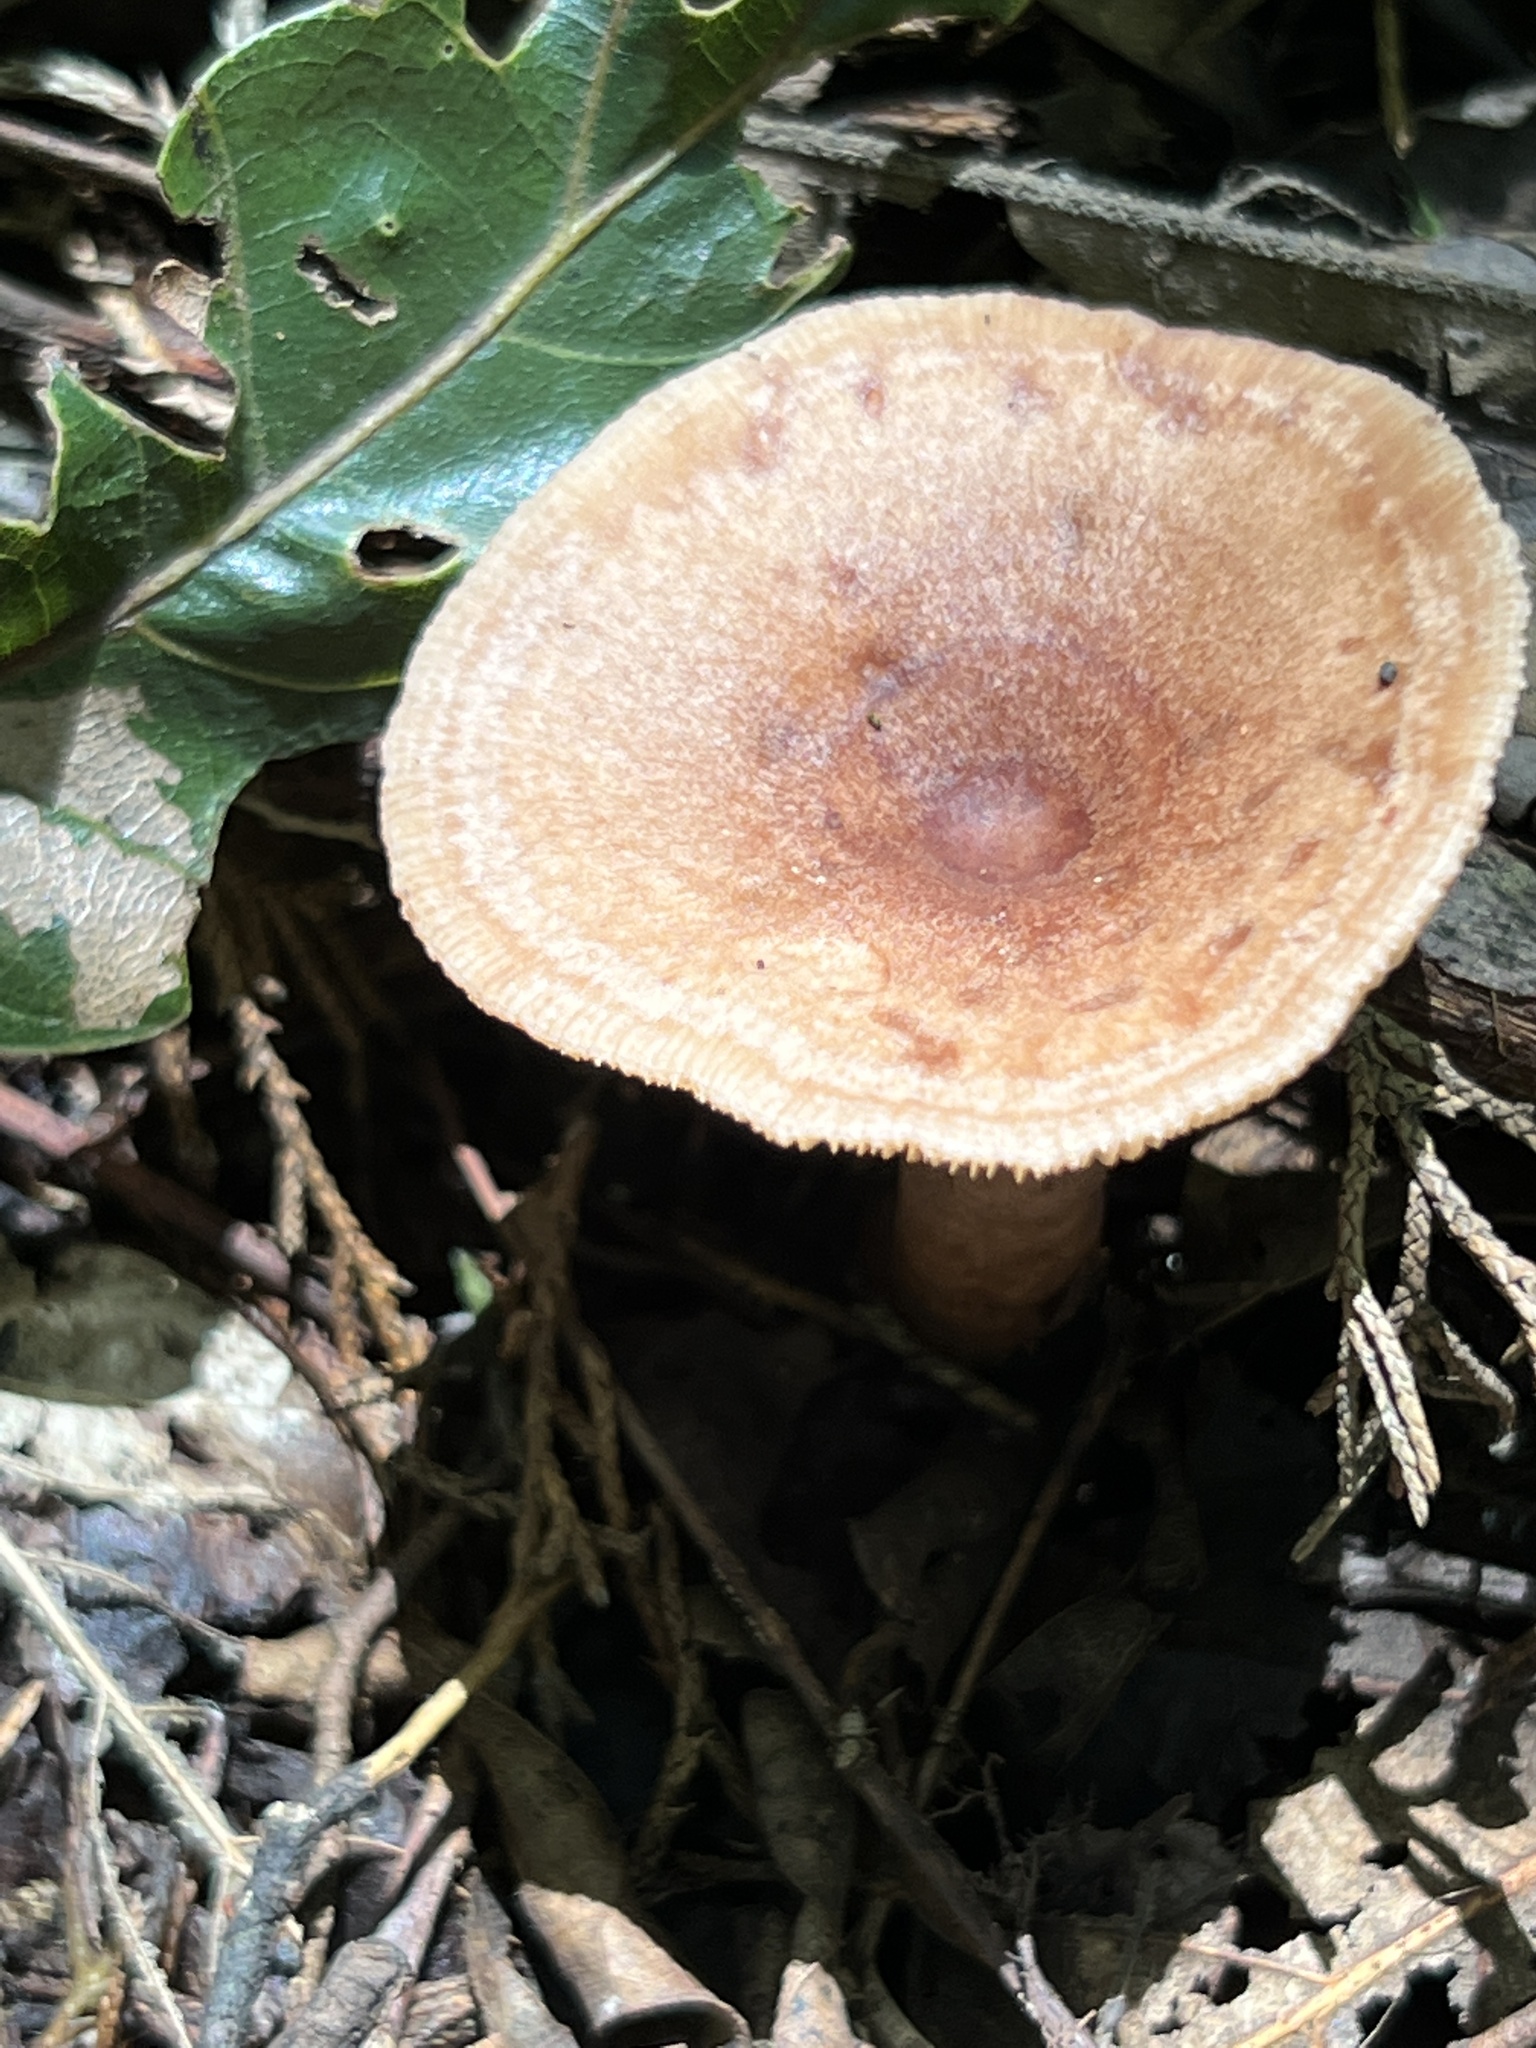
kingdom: Fungi
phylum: Basidiomycota
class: Agaricomycetes
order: Russulales
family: Russulaceae
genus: Lactarius
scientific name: Lactarius quietus
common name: Oak milk-cap
